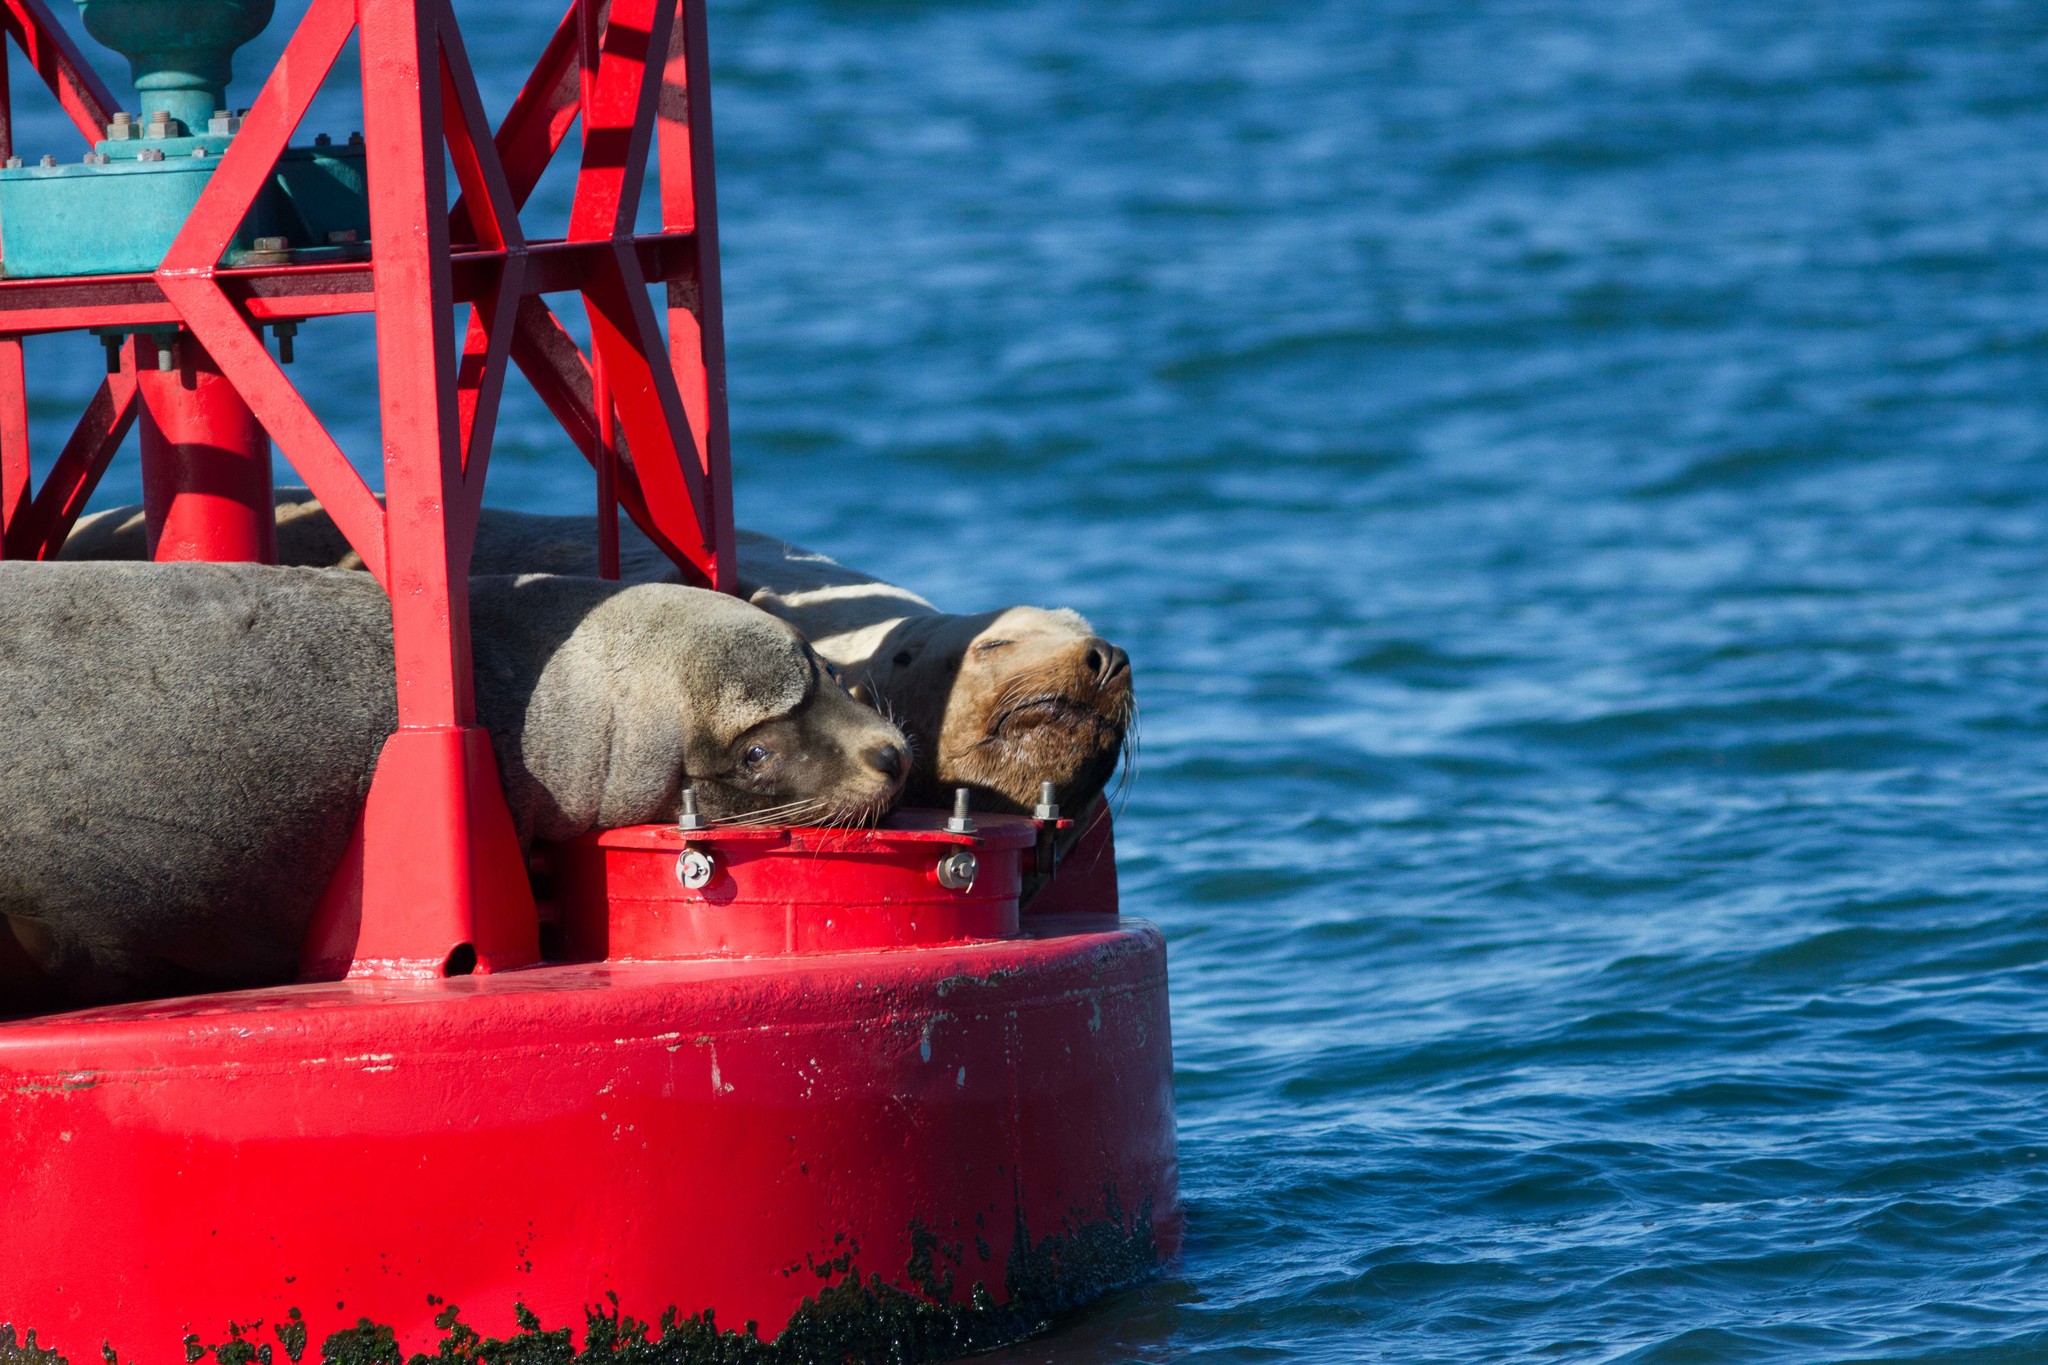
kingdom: Animalia
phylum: Chordata
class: Mammalia
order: Carnivora
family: Otariidae
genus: Zalophus
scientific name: Zalophus californianus
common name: California sea lion
